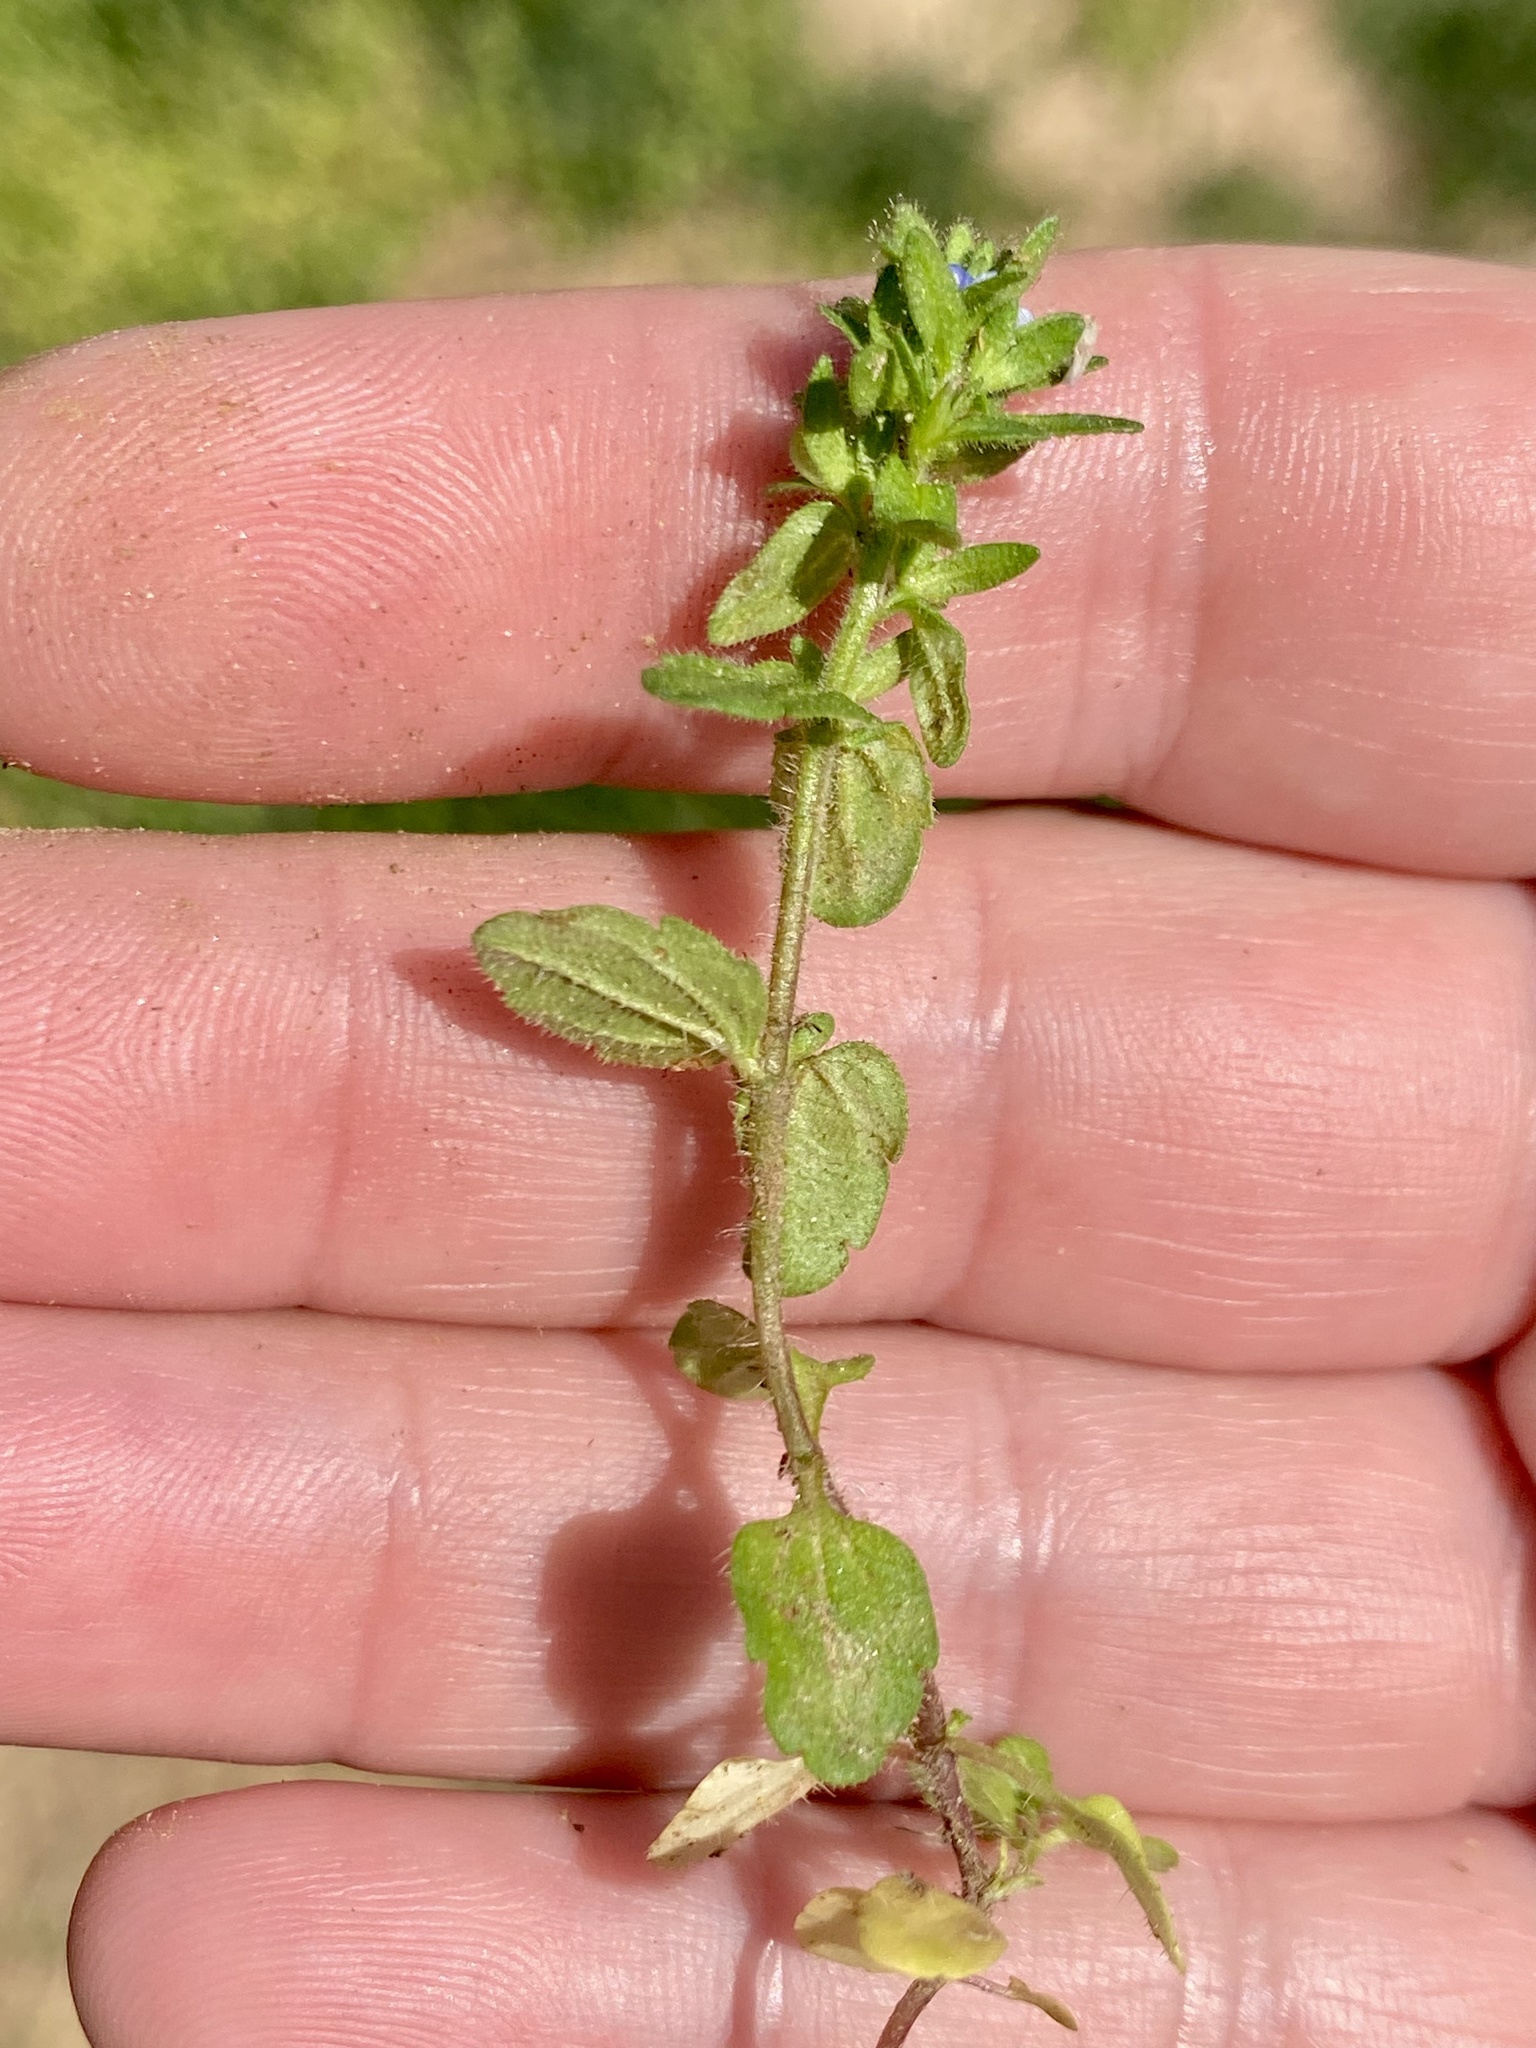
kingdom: Plantae
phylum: Tracheophyta
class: Magnoliopsida
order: Lamiales
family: Plantaginaceae
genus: Veronica
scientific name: Veronica arvensis
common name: Corn speedwell
